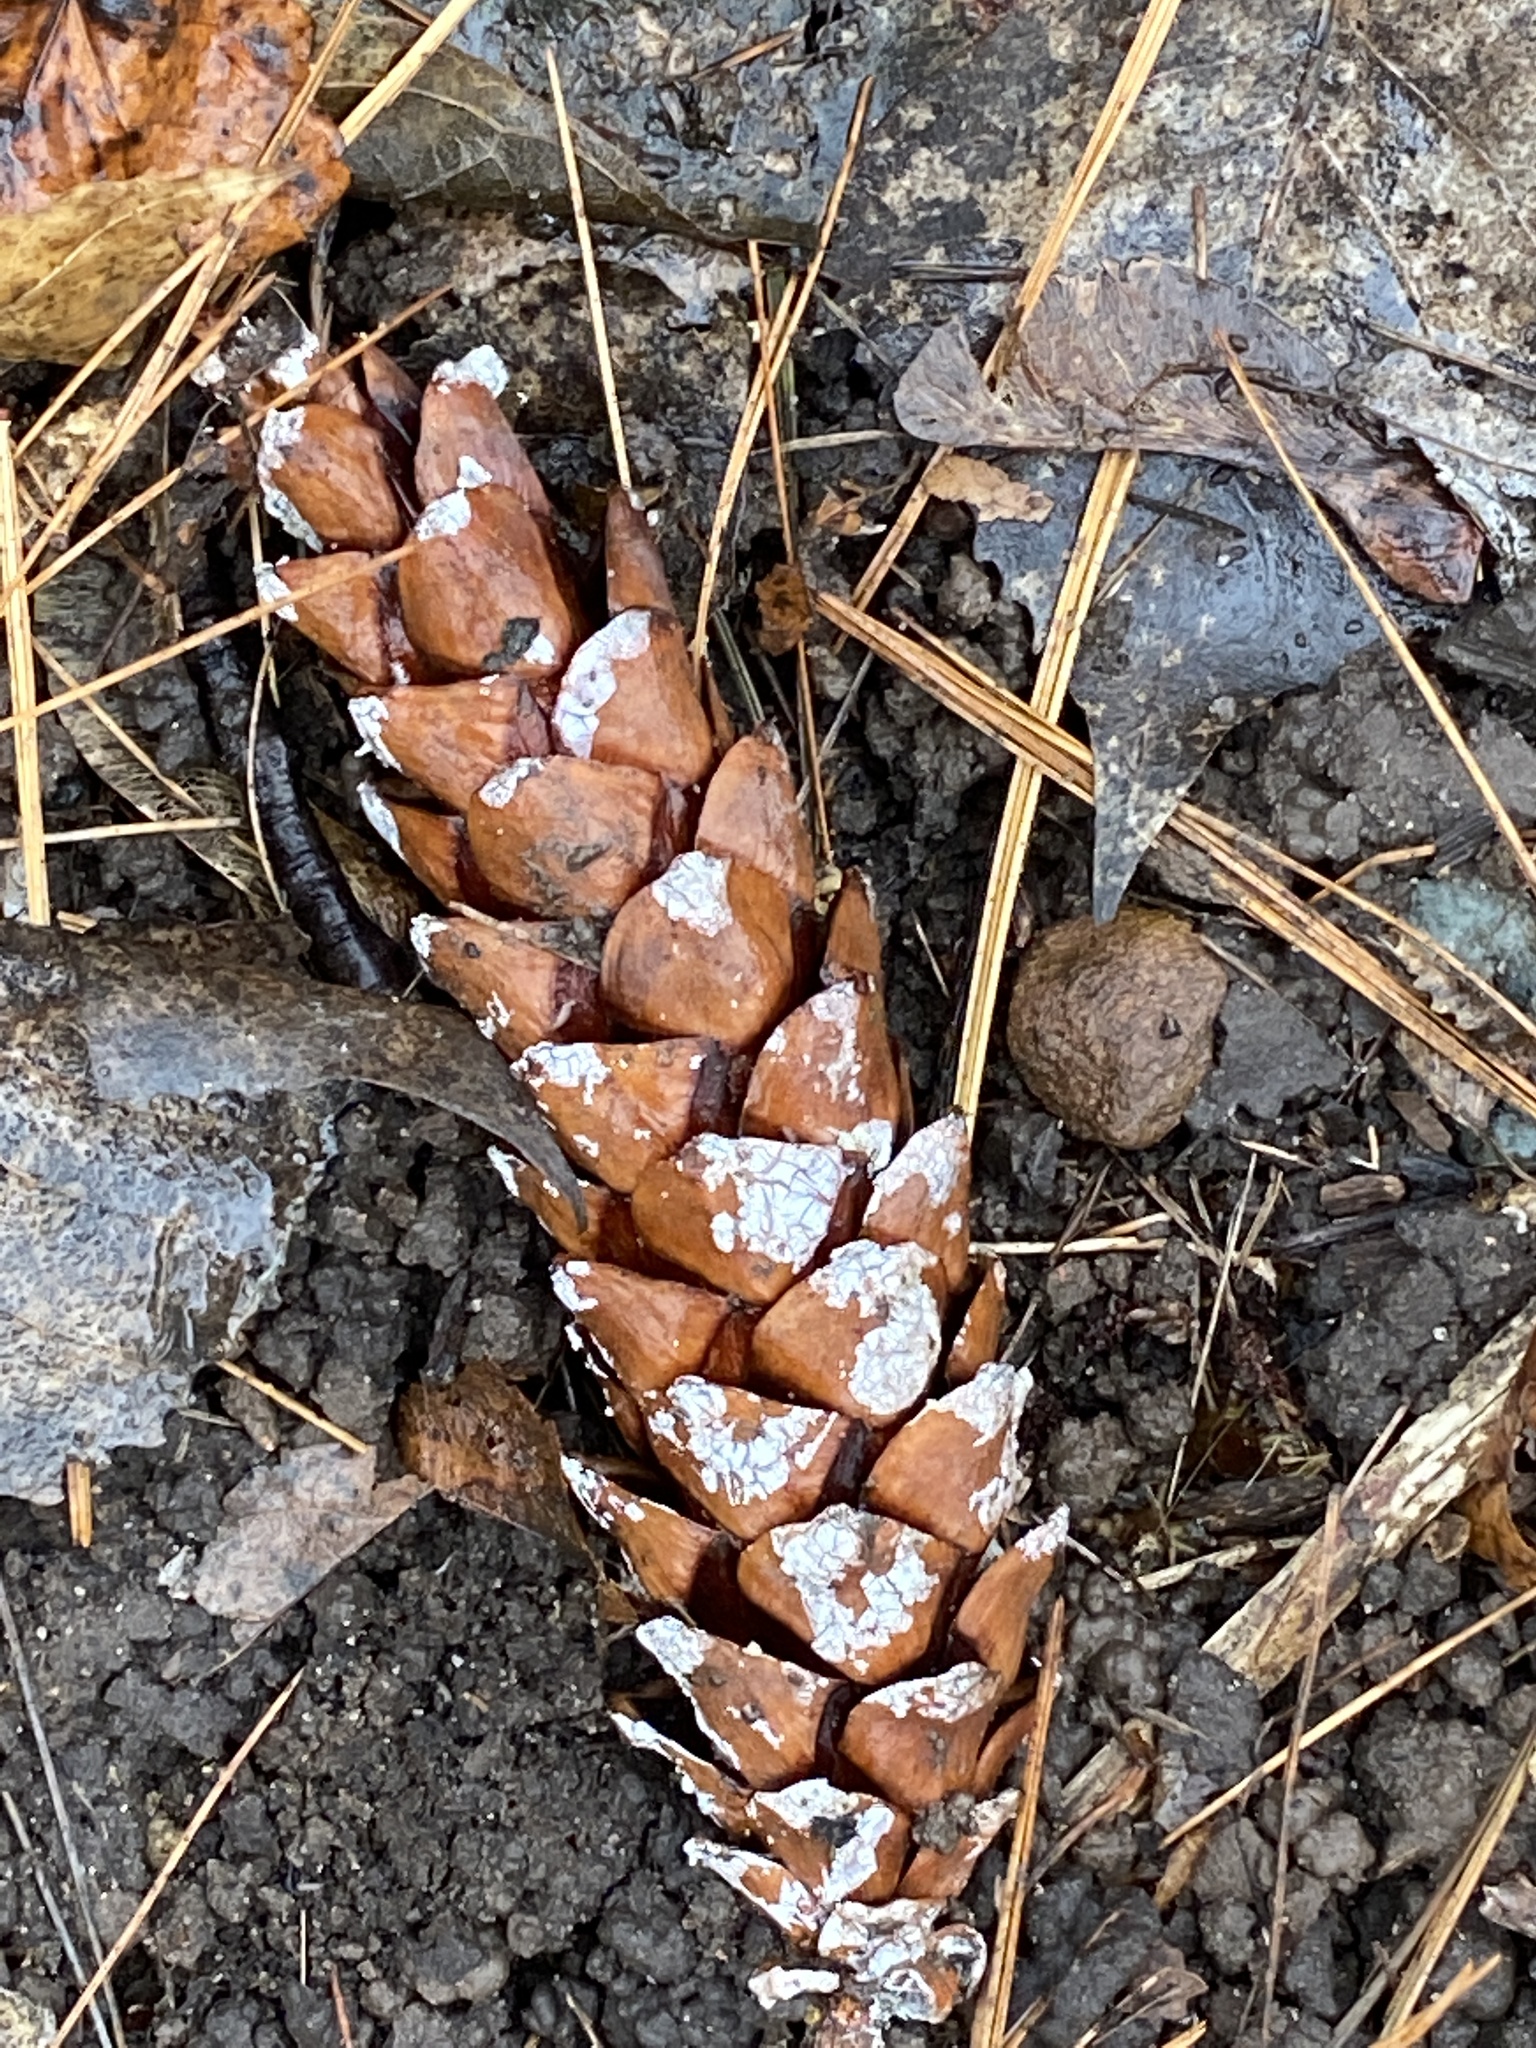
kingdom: Plantae
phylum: Tracheophyta
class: Pinopsida
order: Pinales
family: Pinaceae
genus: Pinus
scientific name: Pinus strobus
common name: Weymouth pine
